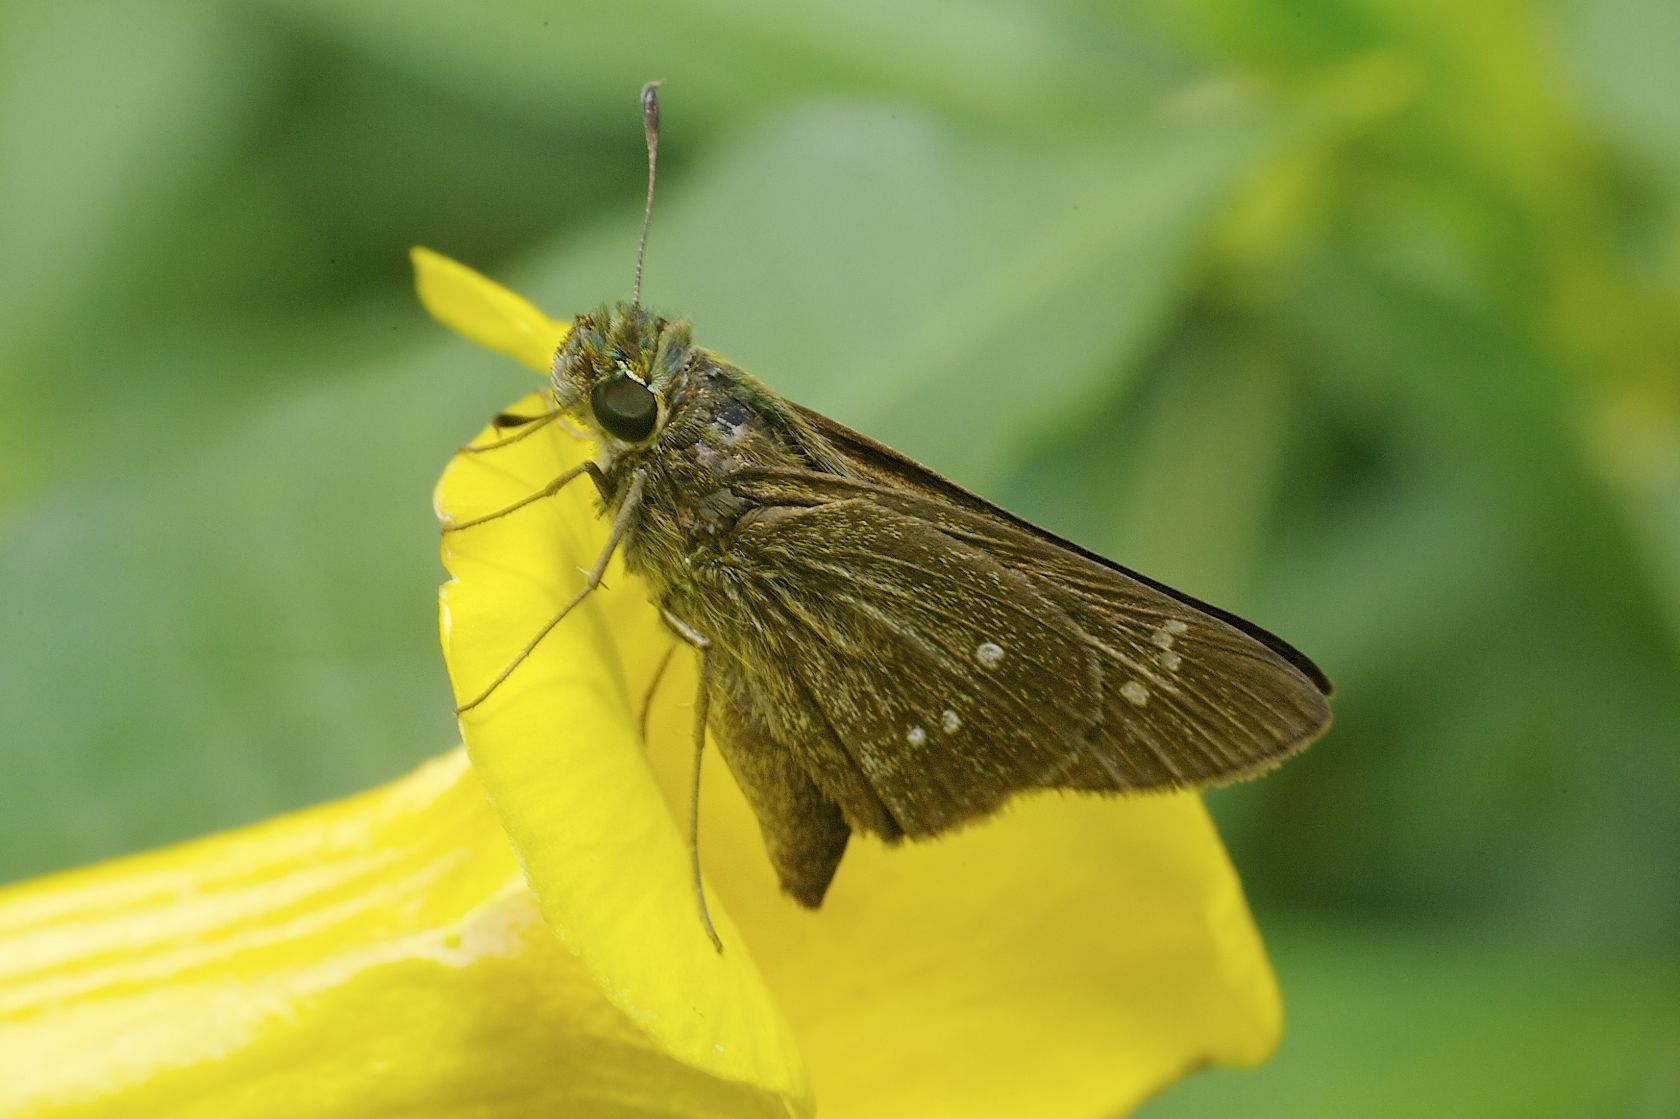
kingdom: Animalia
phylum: Arthropoda
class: Insecta
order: Lepidoptera
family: Hesperiidae
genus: Borbo
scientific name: Borbo cinnara
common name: Formosan swift
